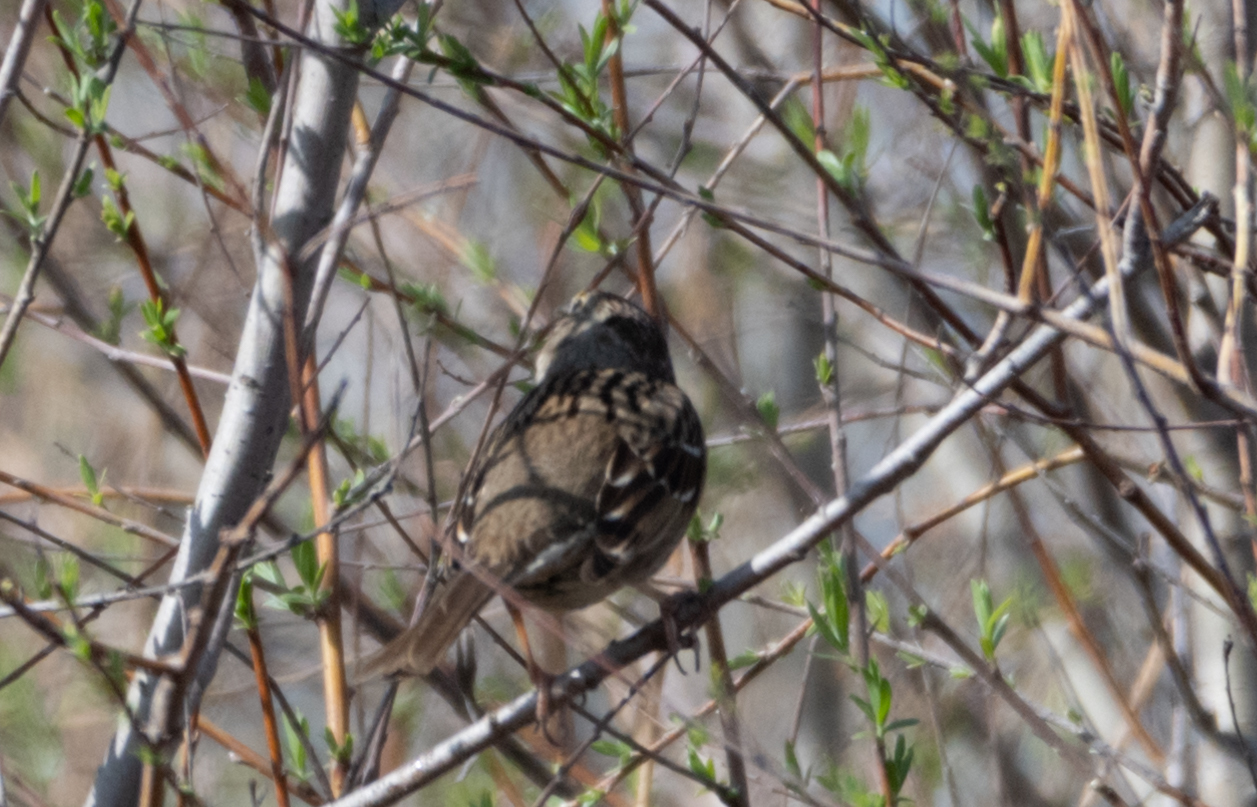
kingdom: Animalia
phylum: Chordata
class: Aves
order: Passeriformes
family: Passerellidae
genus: Zonotrichia
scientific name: Zonotrichia atricapilla
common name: Golden-crowned sparrow
